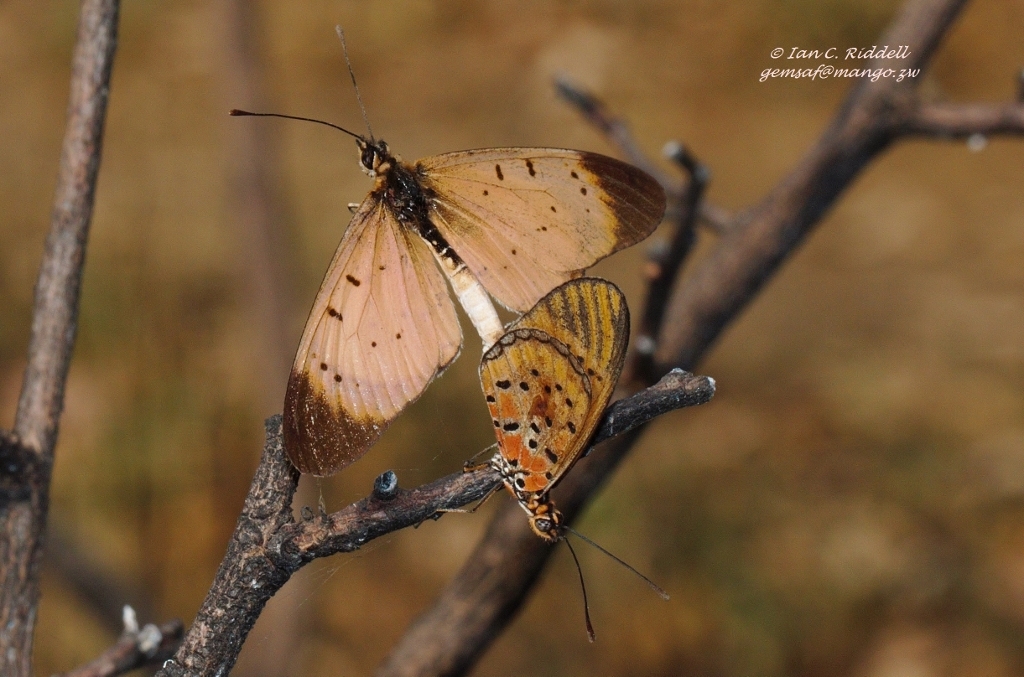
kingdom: Animalia
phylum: Arthropoda
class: Insecta
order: Lepidoptera
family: Nymphalidae
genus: Stephenia
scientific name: Stephenia
